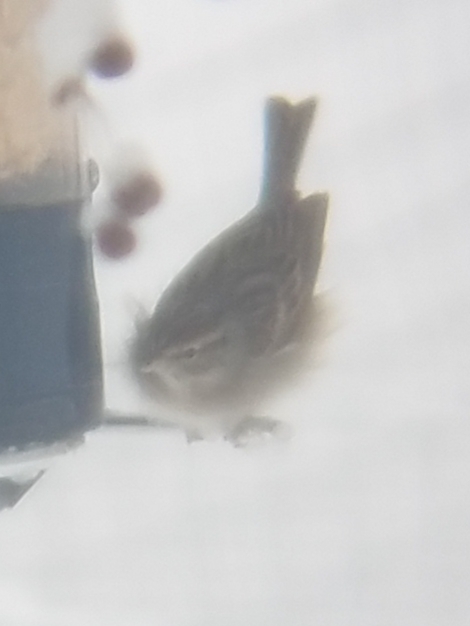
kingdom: Animalia
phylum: Chordata
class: Aves
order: Passeriformes
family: Passerellidae
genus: Spizella
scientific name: Spizella passerina
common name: Chipping sparrow
